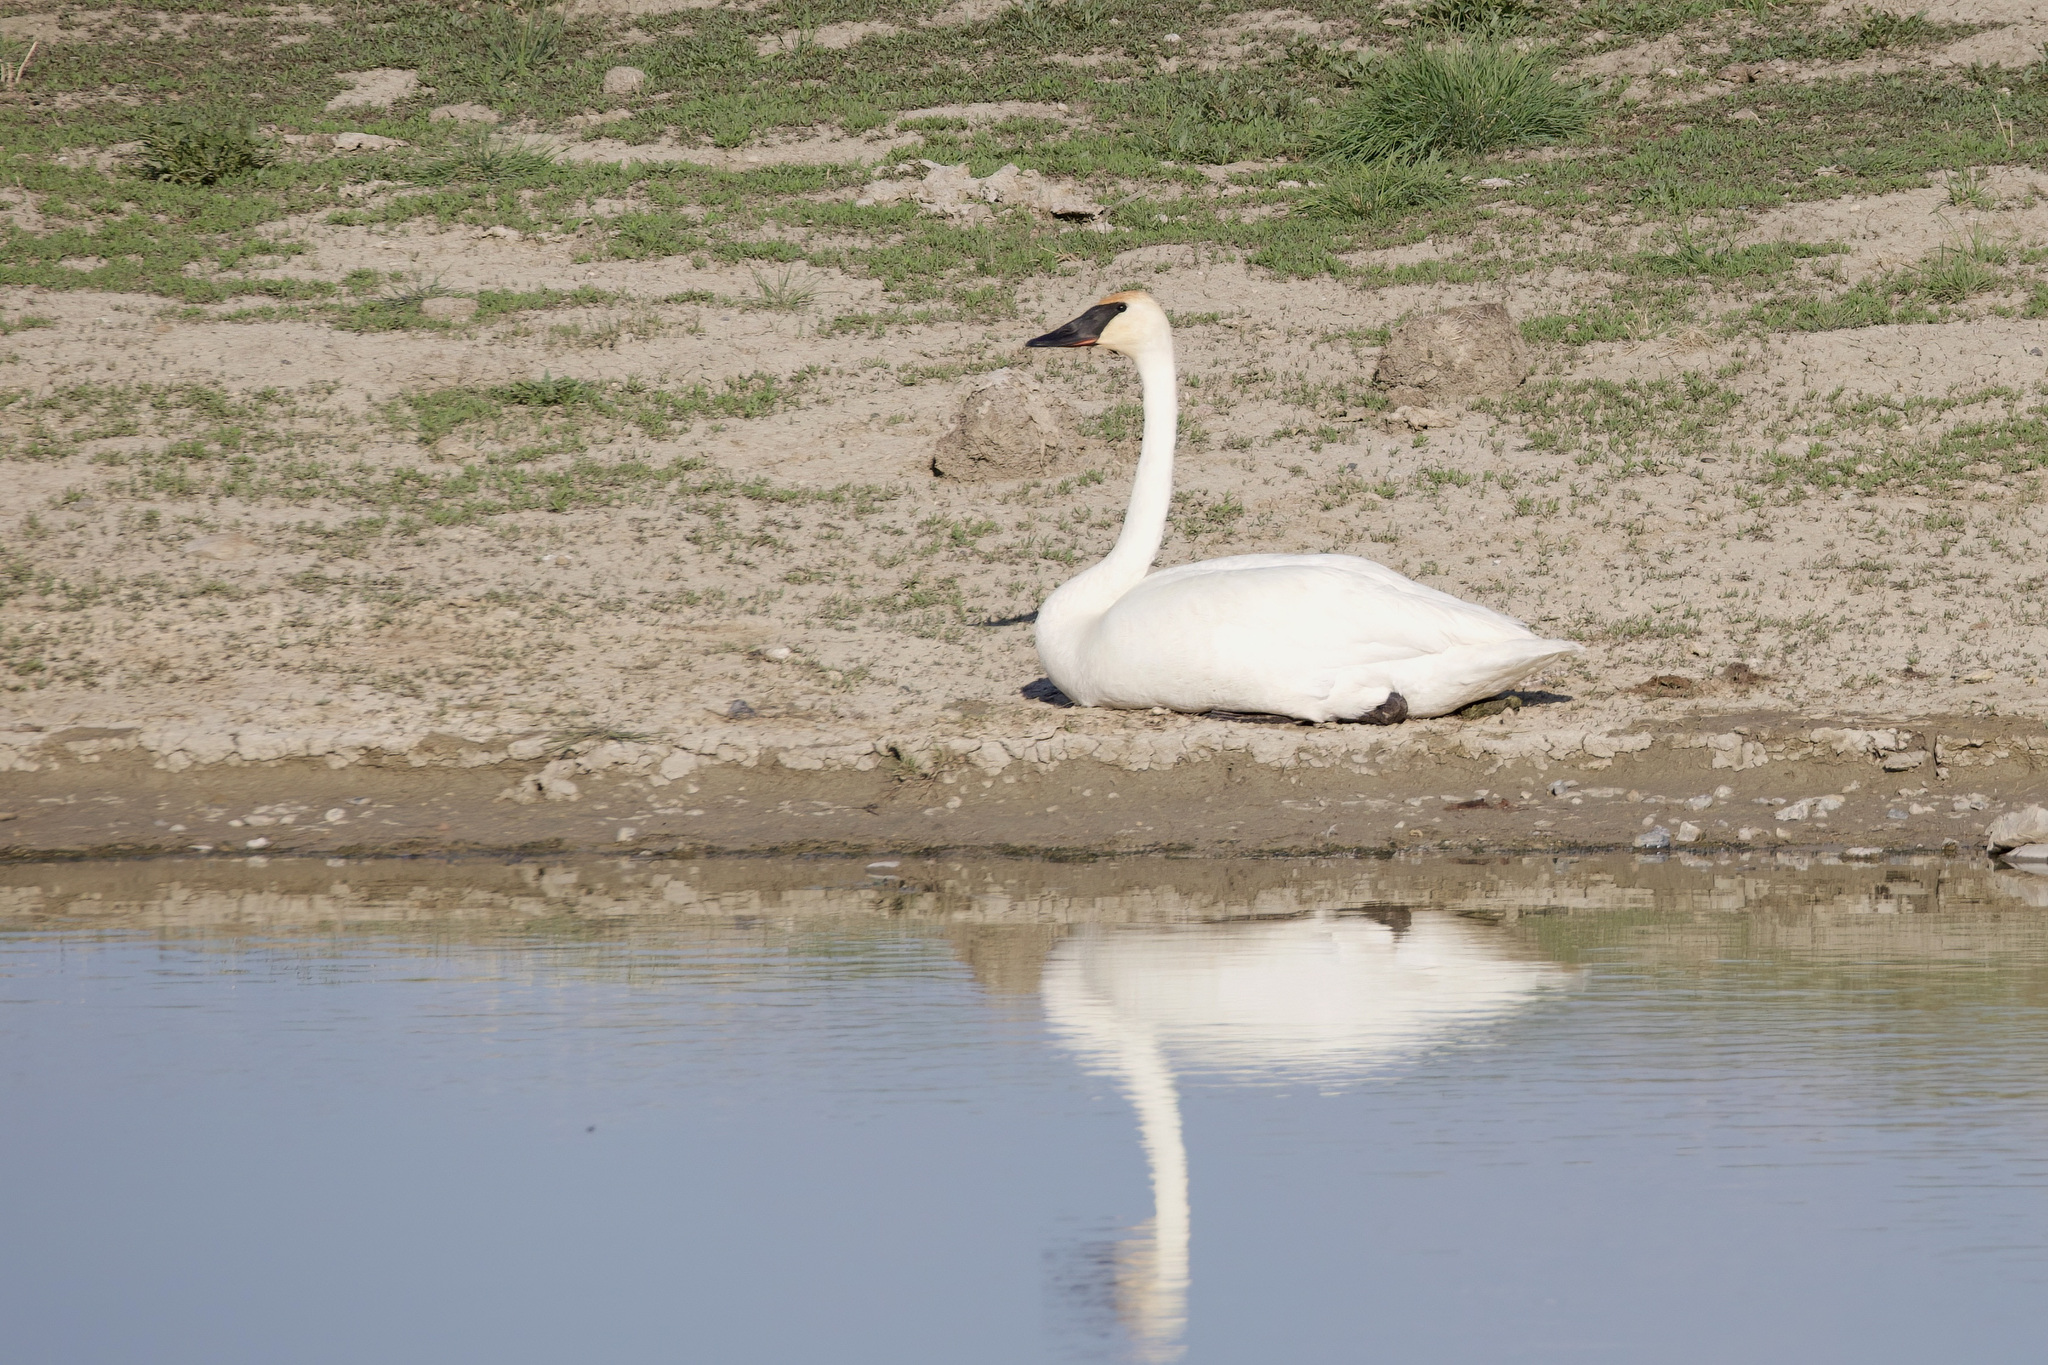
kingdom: Animalia
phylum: Chordata
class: Aves
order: Anseriformes
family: Anatidae
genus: Cygnus
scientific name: Cygnus buccinator
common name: Trumpeter swan
